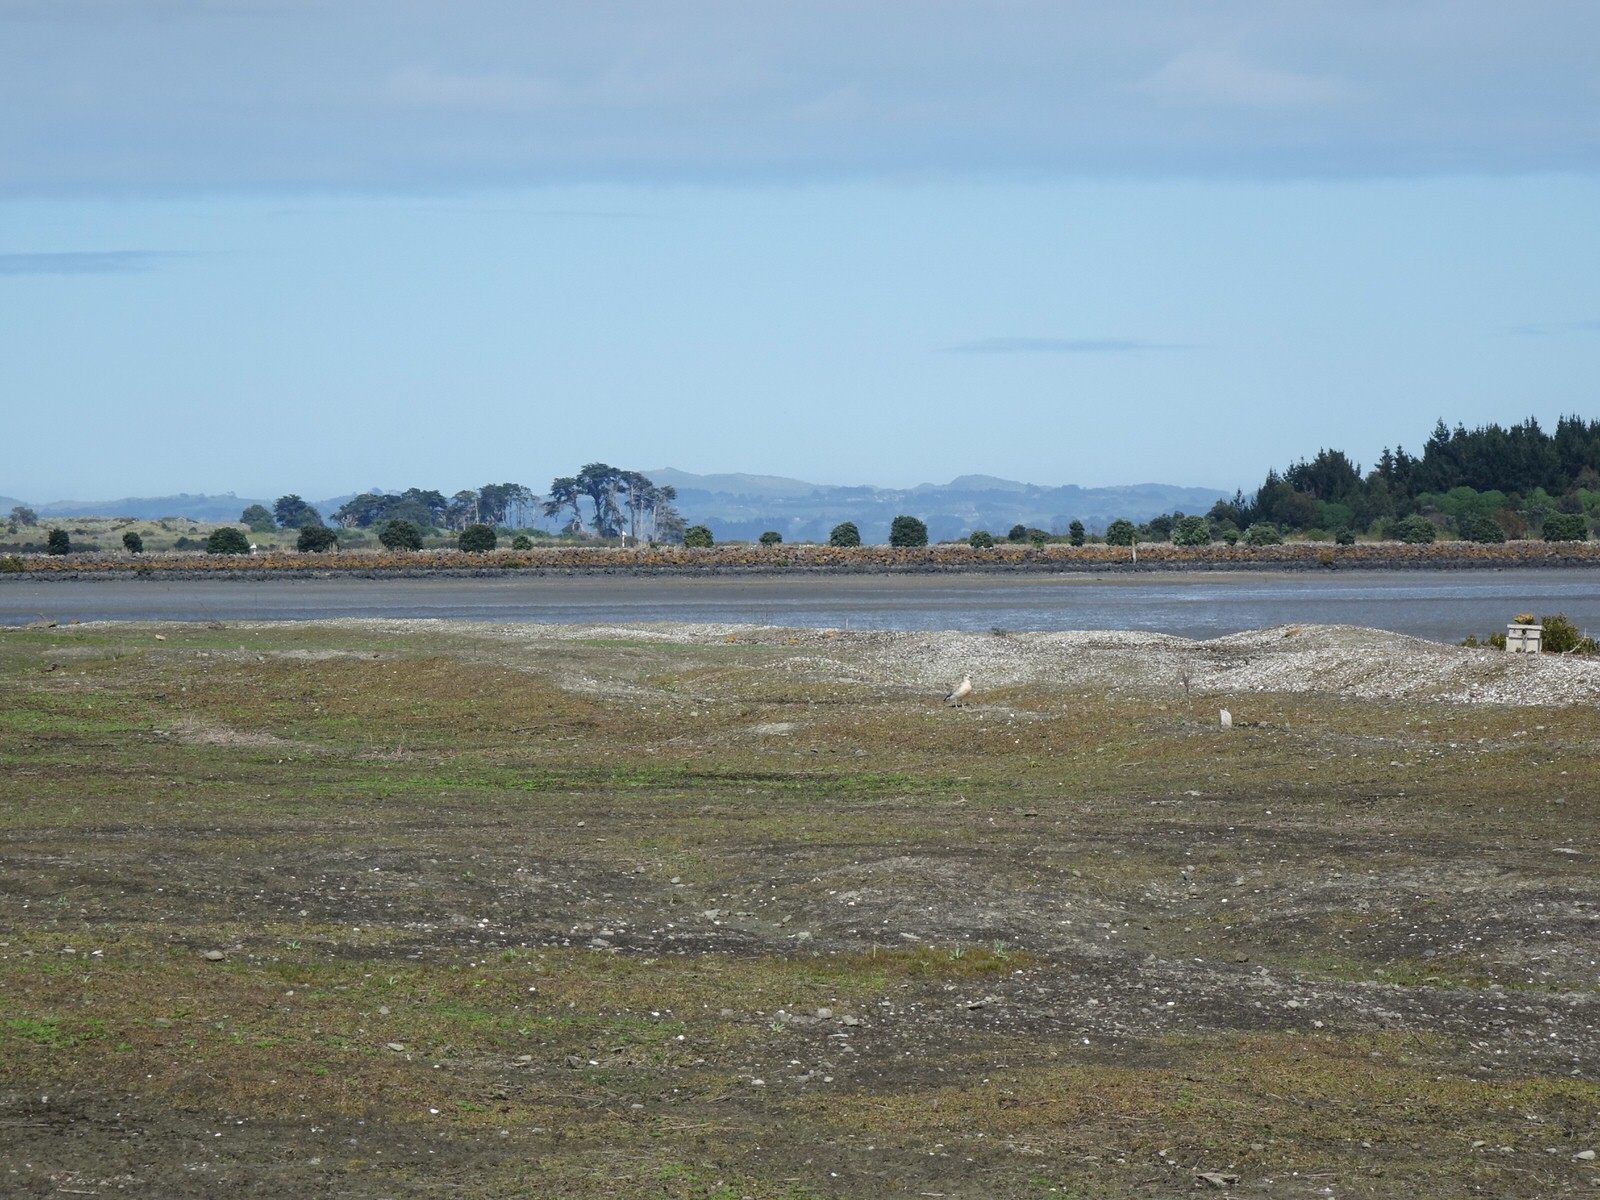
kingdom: Animalia
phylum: Chordata
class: Aves
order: Charadriiformes
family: Charadriidae
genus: Anarhynchus
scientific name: Anarhynchus
